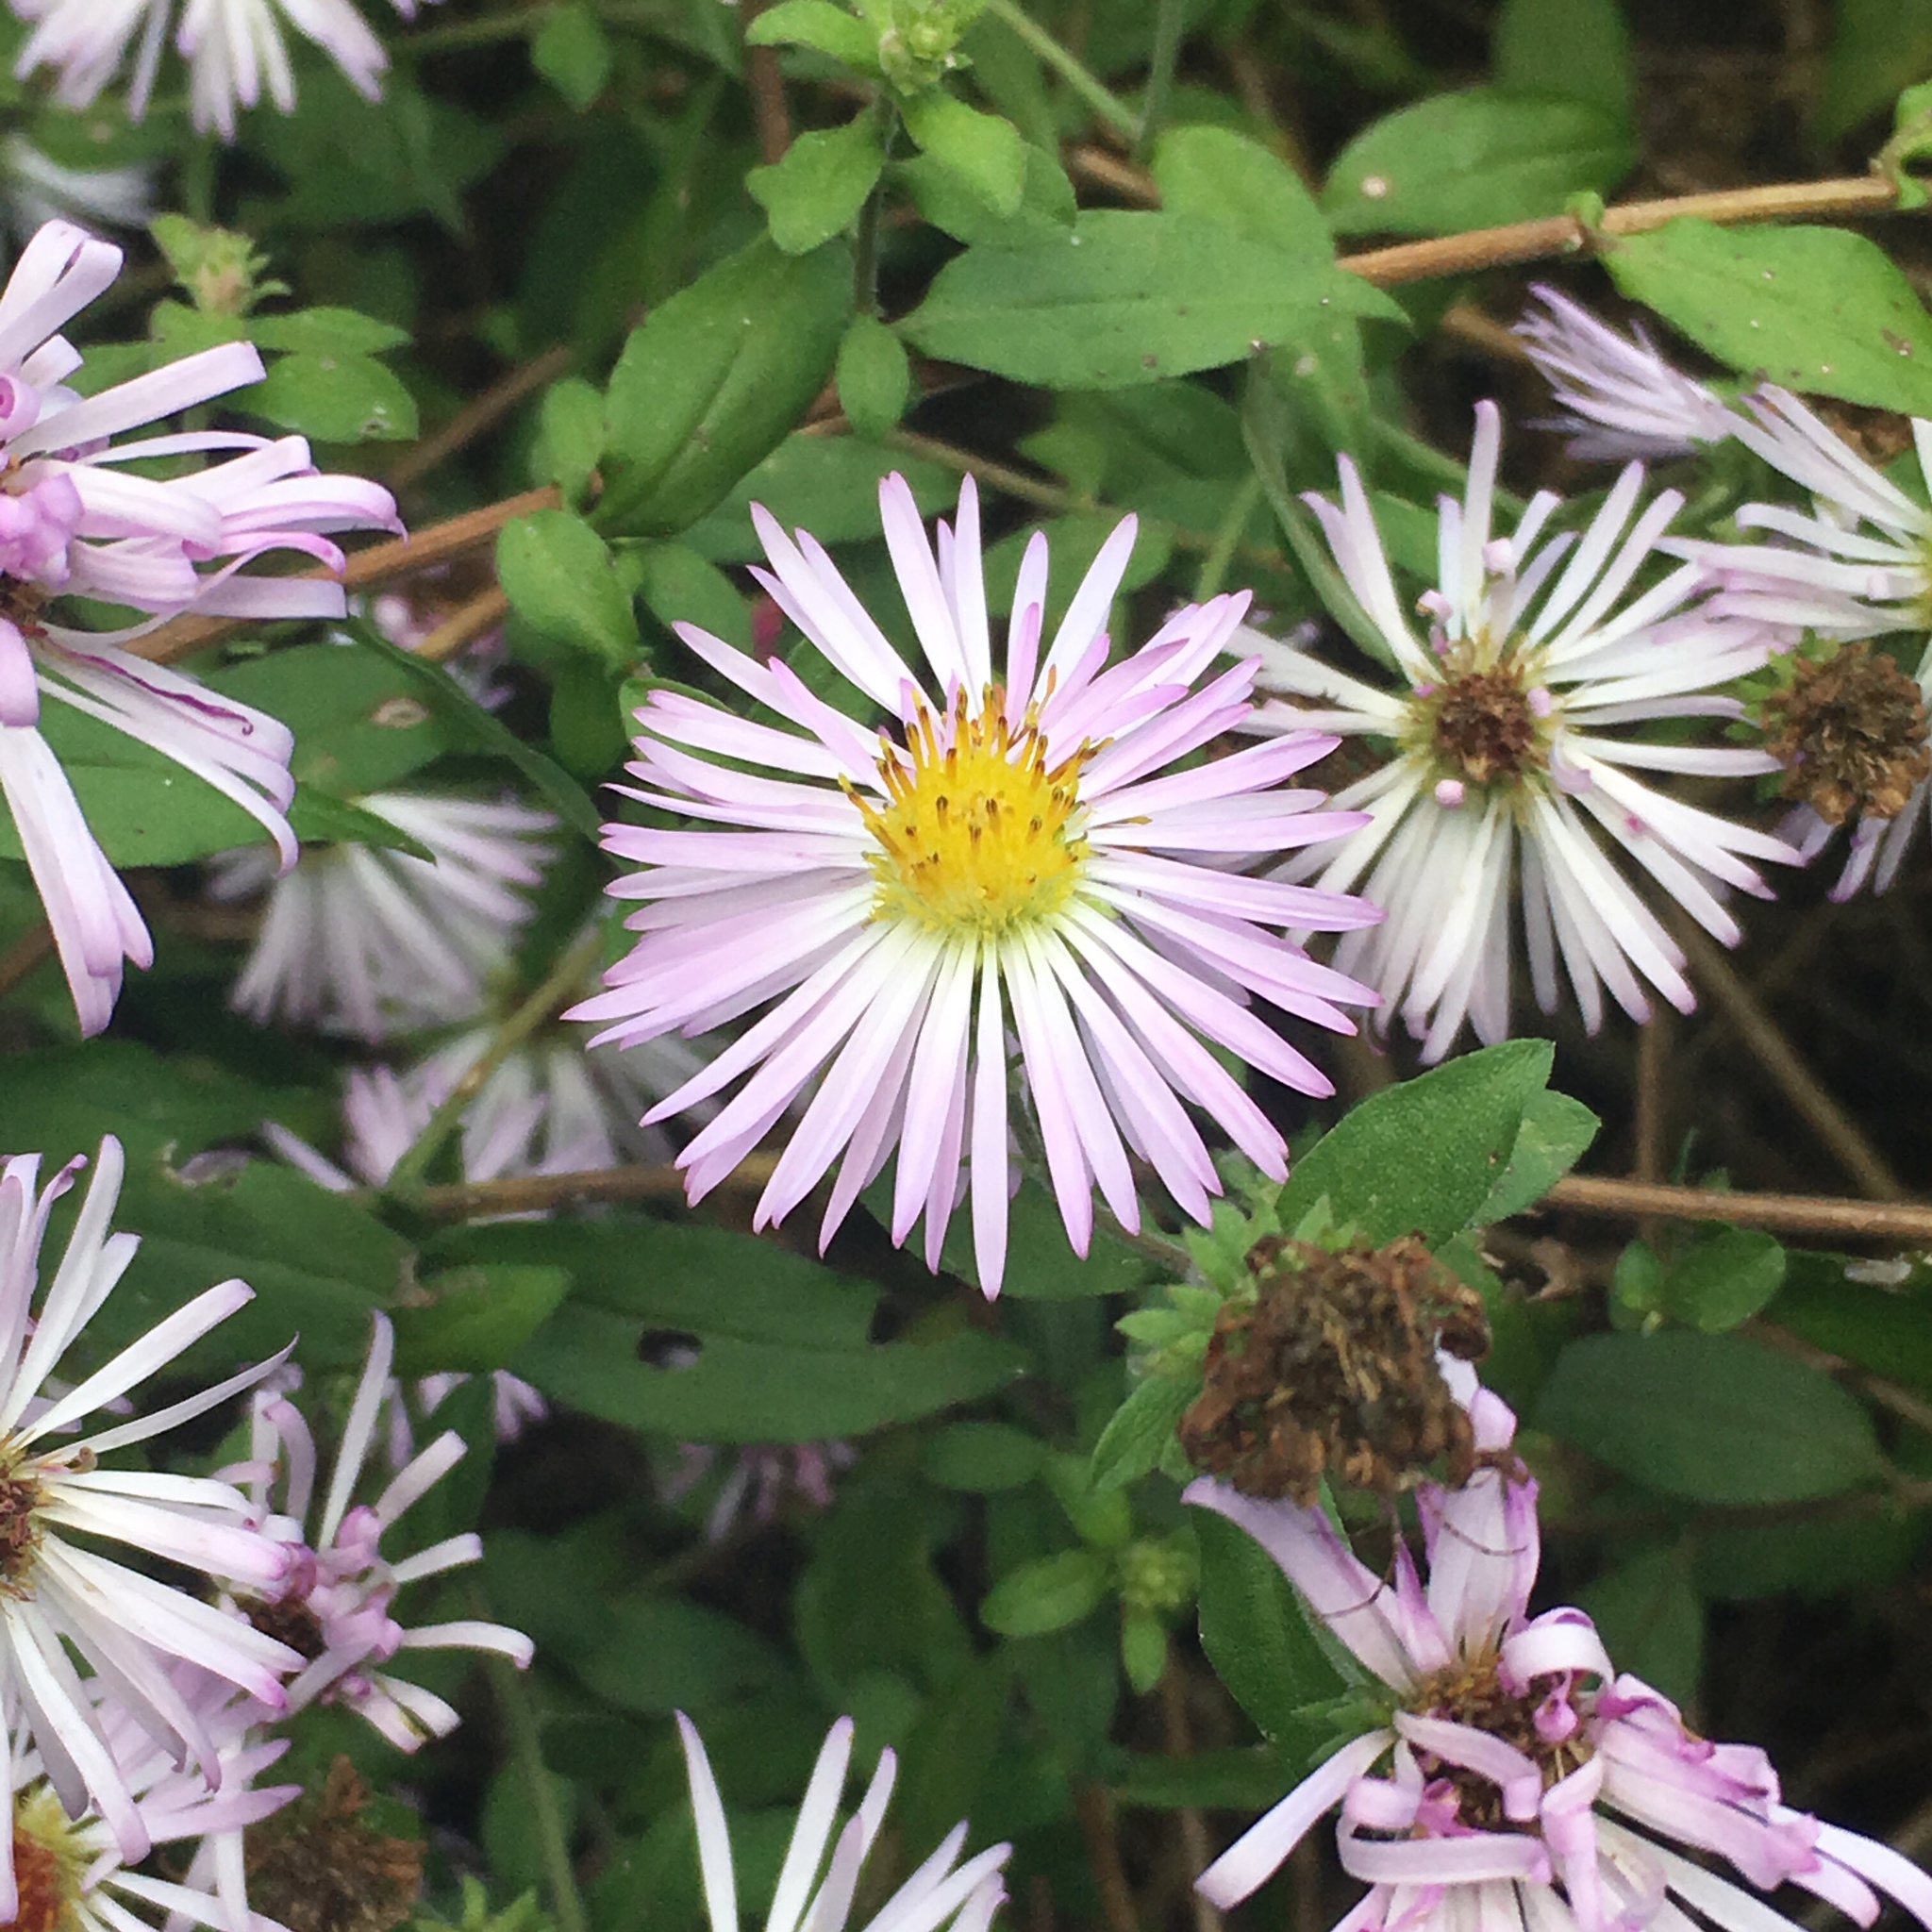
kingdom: Plantae
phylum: Tracheophyta
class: Magnoliopsida
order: Asterales
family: Asteraceae
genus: Ampelaster
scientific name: Ampelaster carolinianus
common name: Climbing aster
